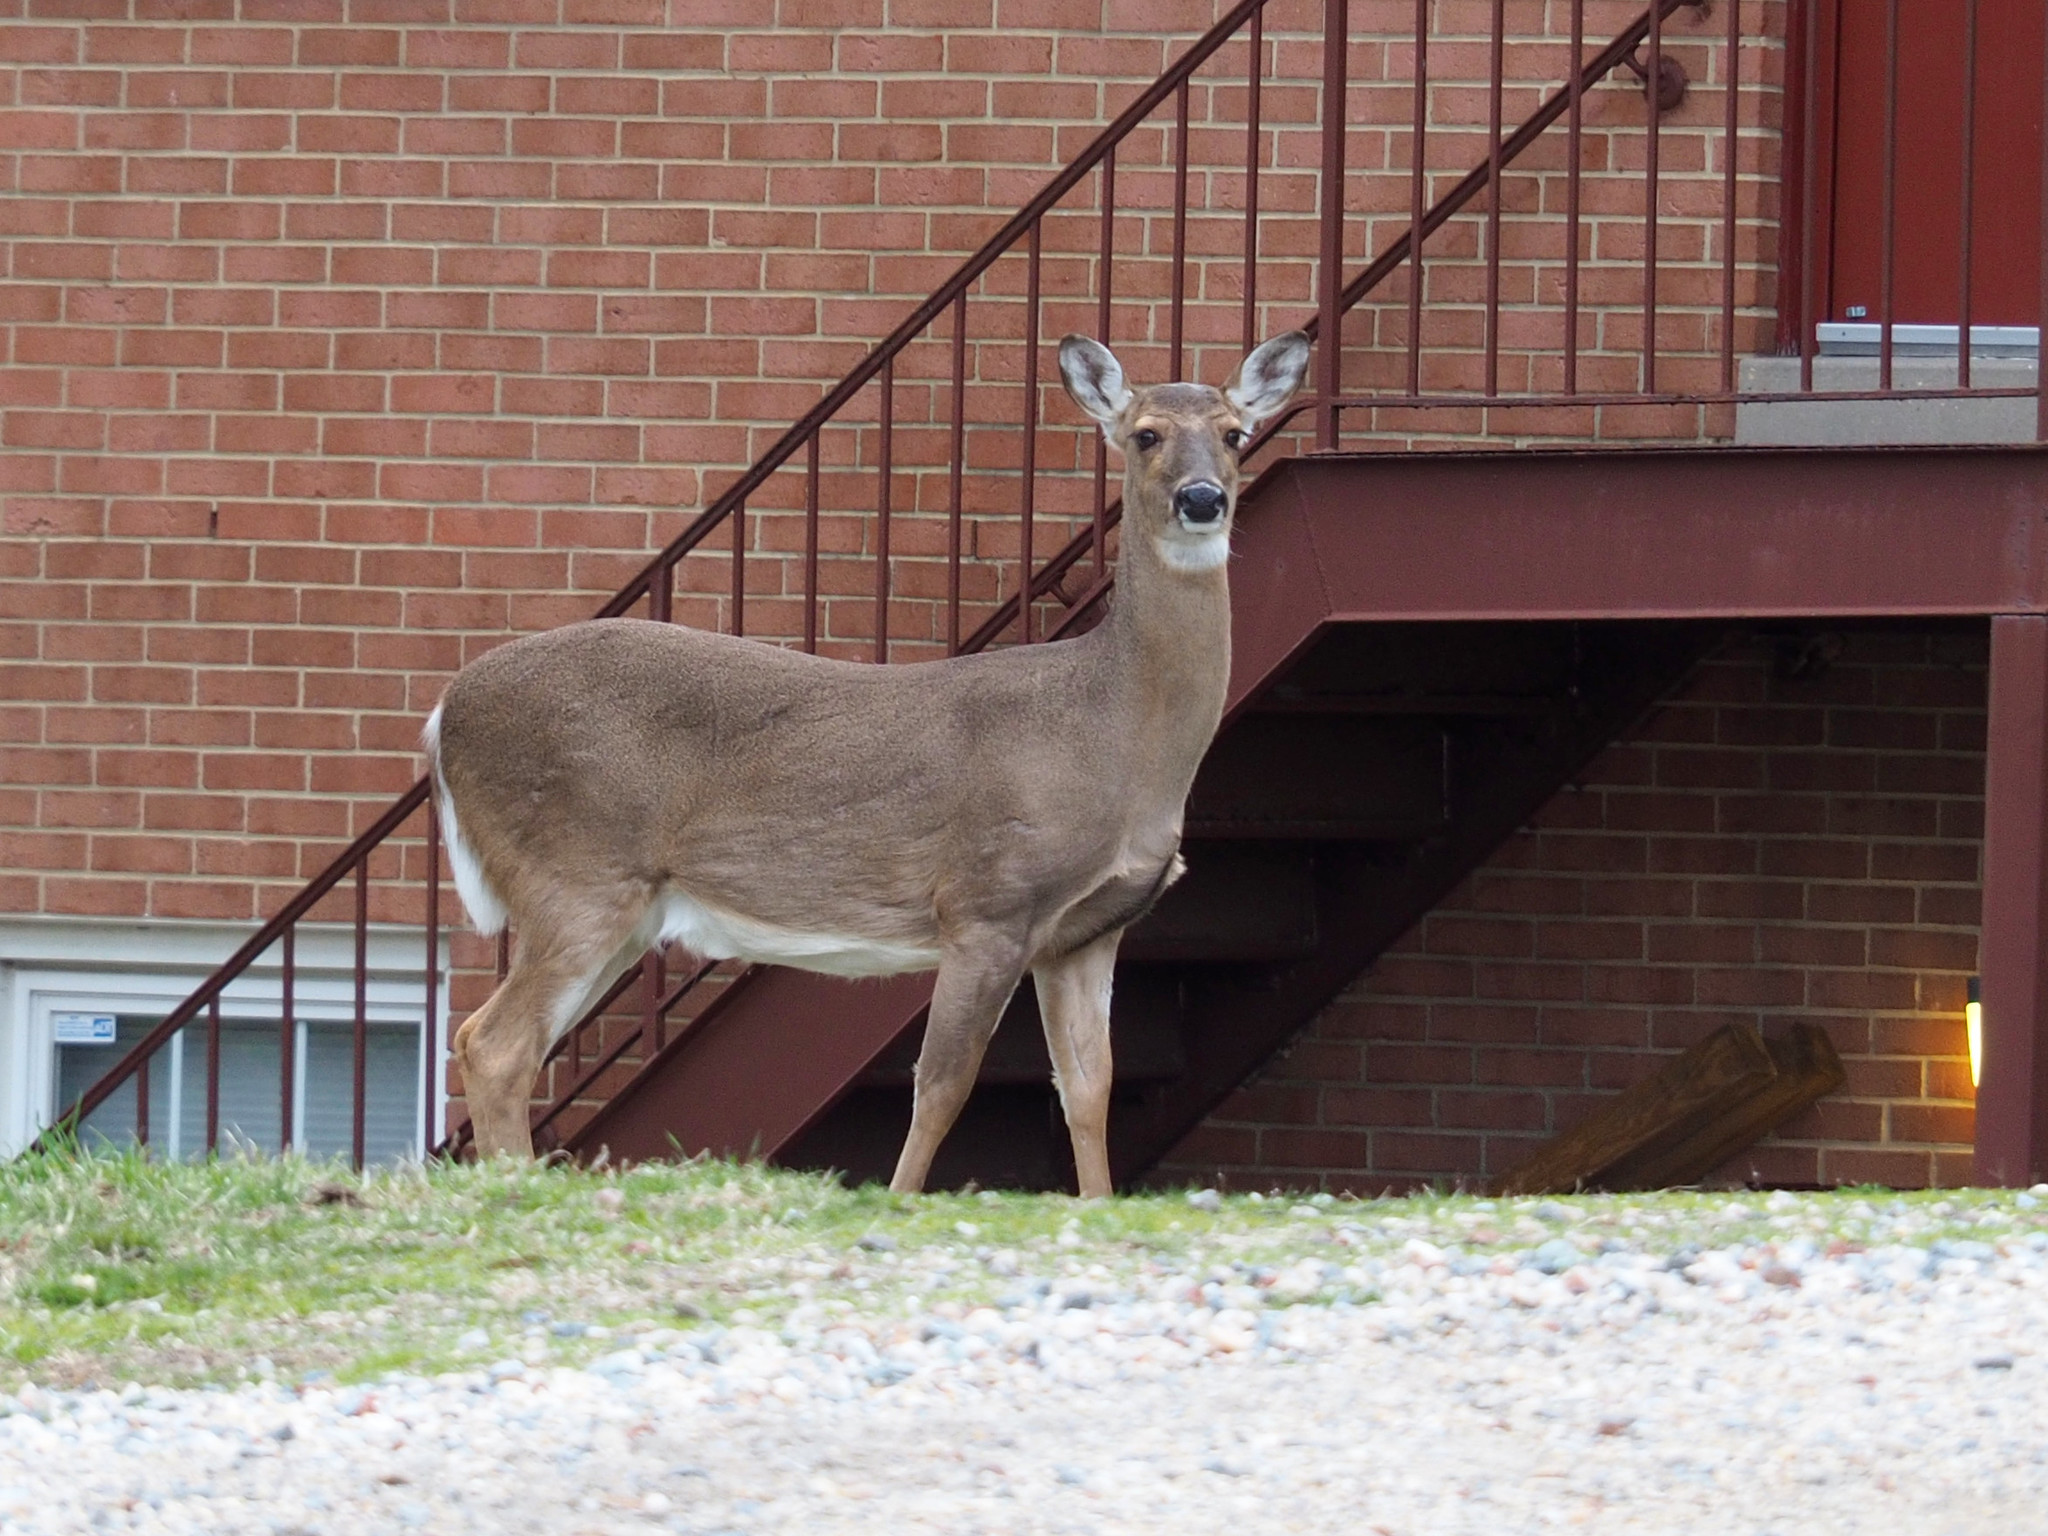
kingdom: Animalia
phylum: Chordata
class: Mammalia
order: Artiodactyla
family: Cervidae
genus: Odocoileus
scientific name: Odocoileus virginianus
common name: White-tailed deer
